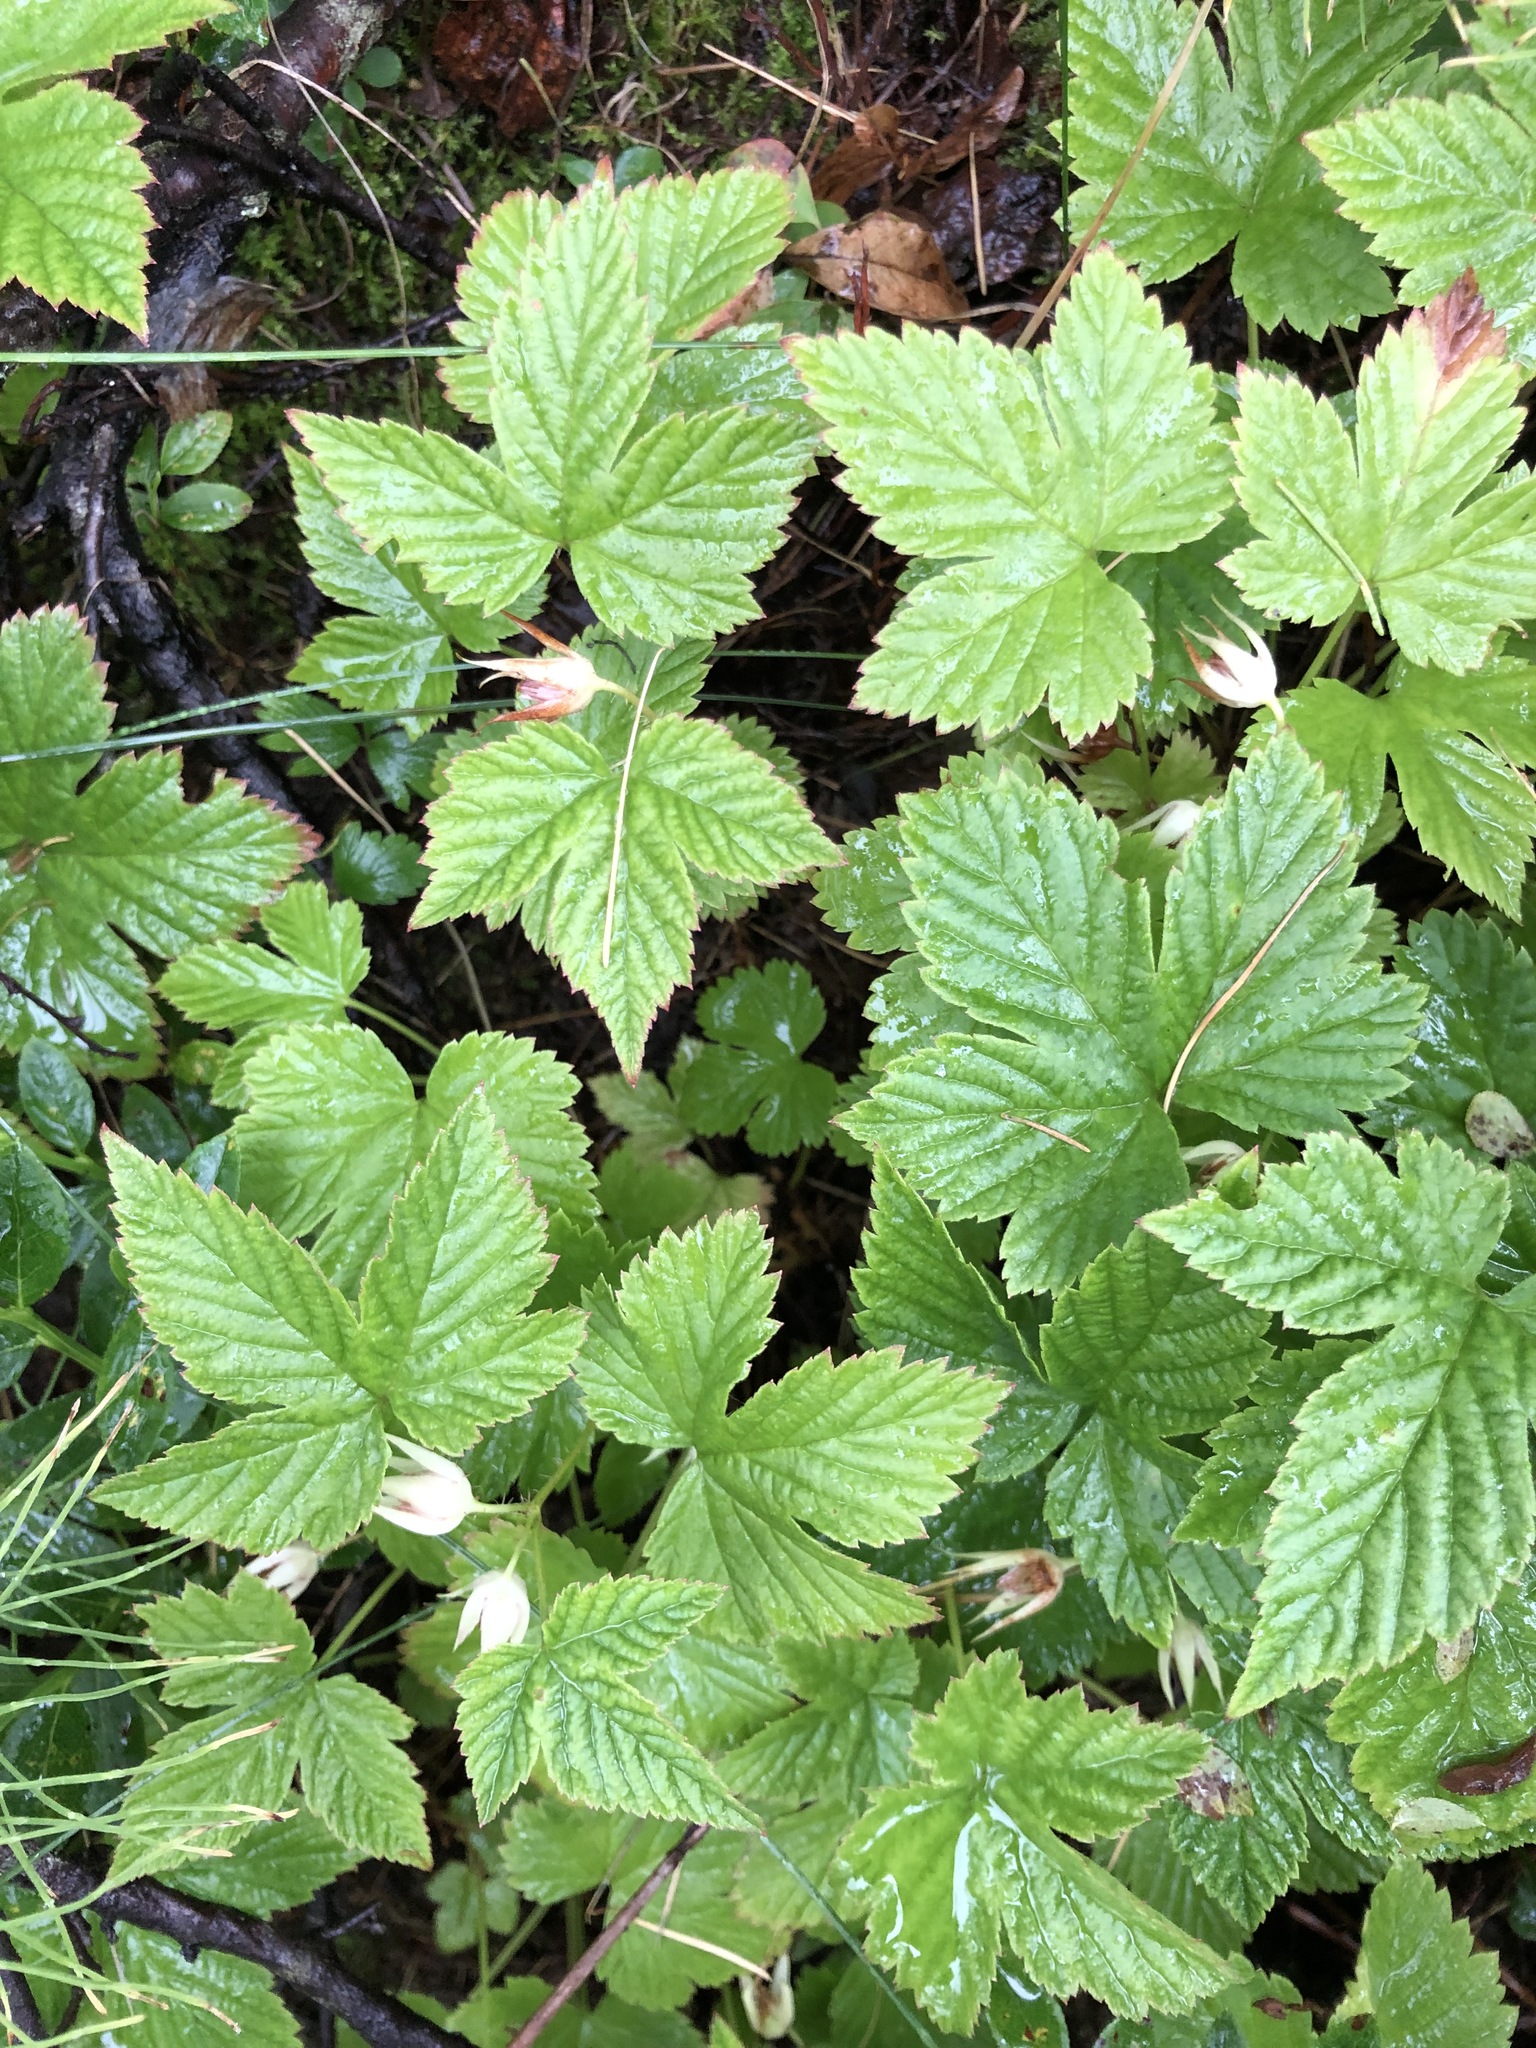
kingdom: Plantae
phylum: Tracheophyta
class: Magnoliopsida
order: Rosales
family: Rosaceae
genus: Rubus
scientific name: Rubus humulifolius
